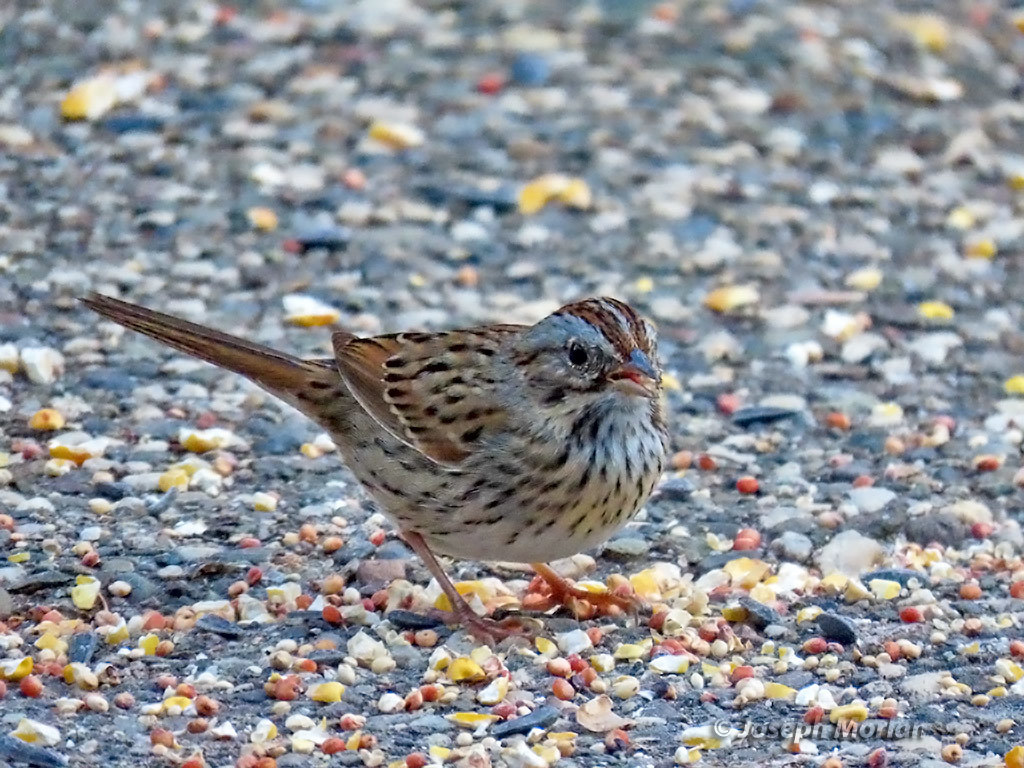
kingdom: Animalia
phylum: Chordata
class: Aves
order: Passeriformes
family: Passerellidae
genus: Melospiza
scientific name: Melospiza lincolnii
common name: Lincoln's sparrow
